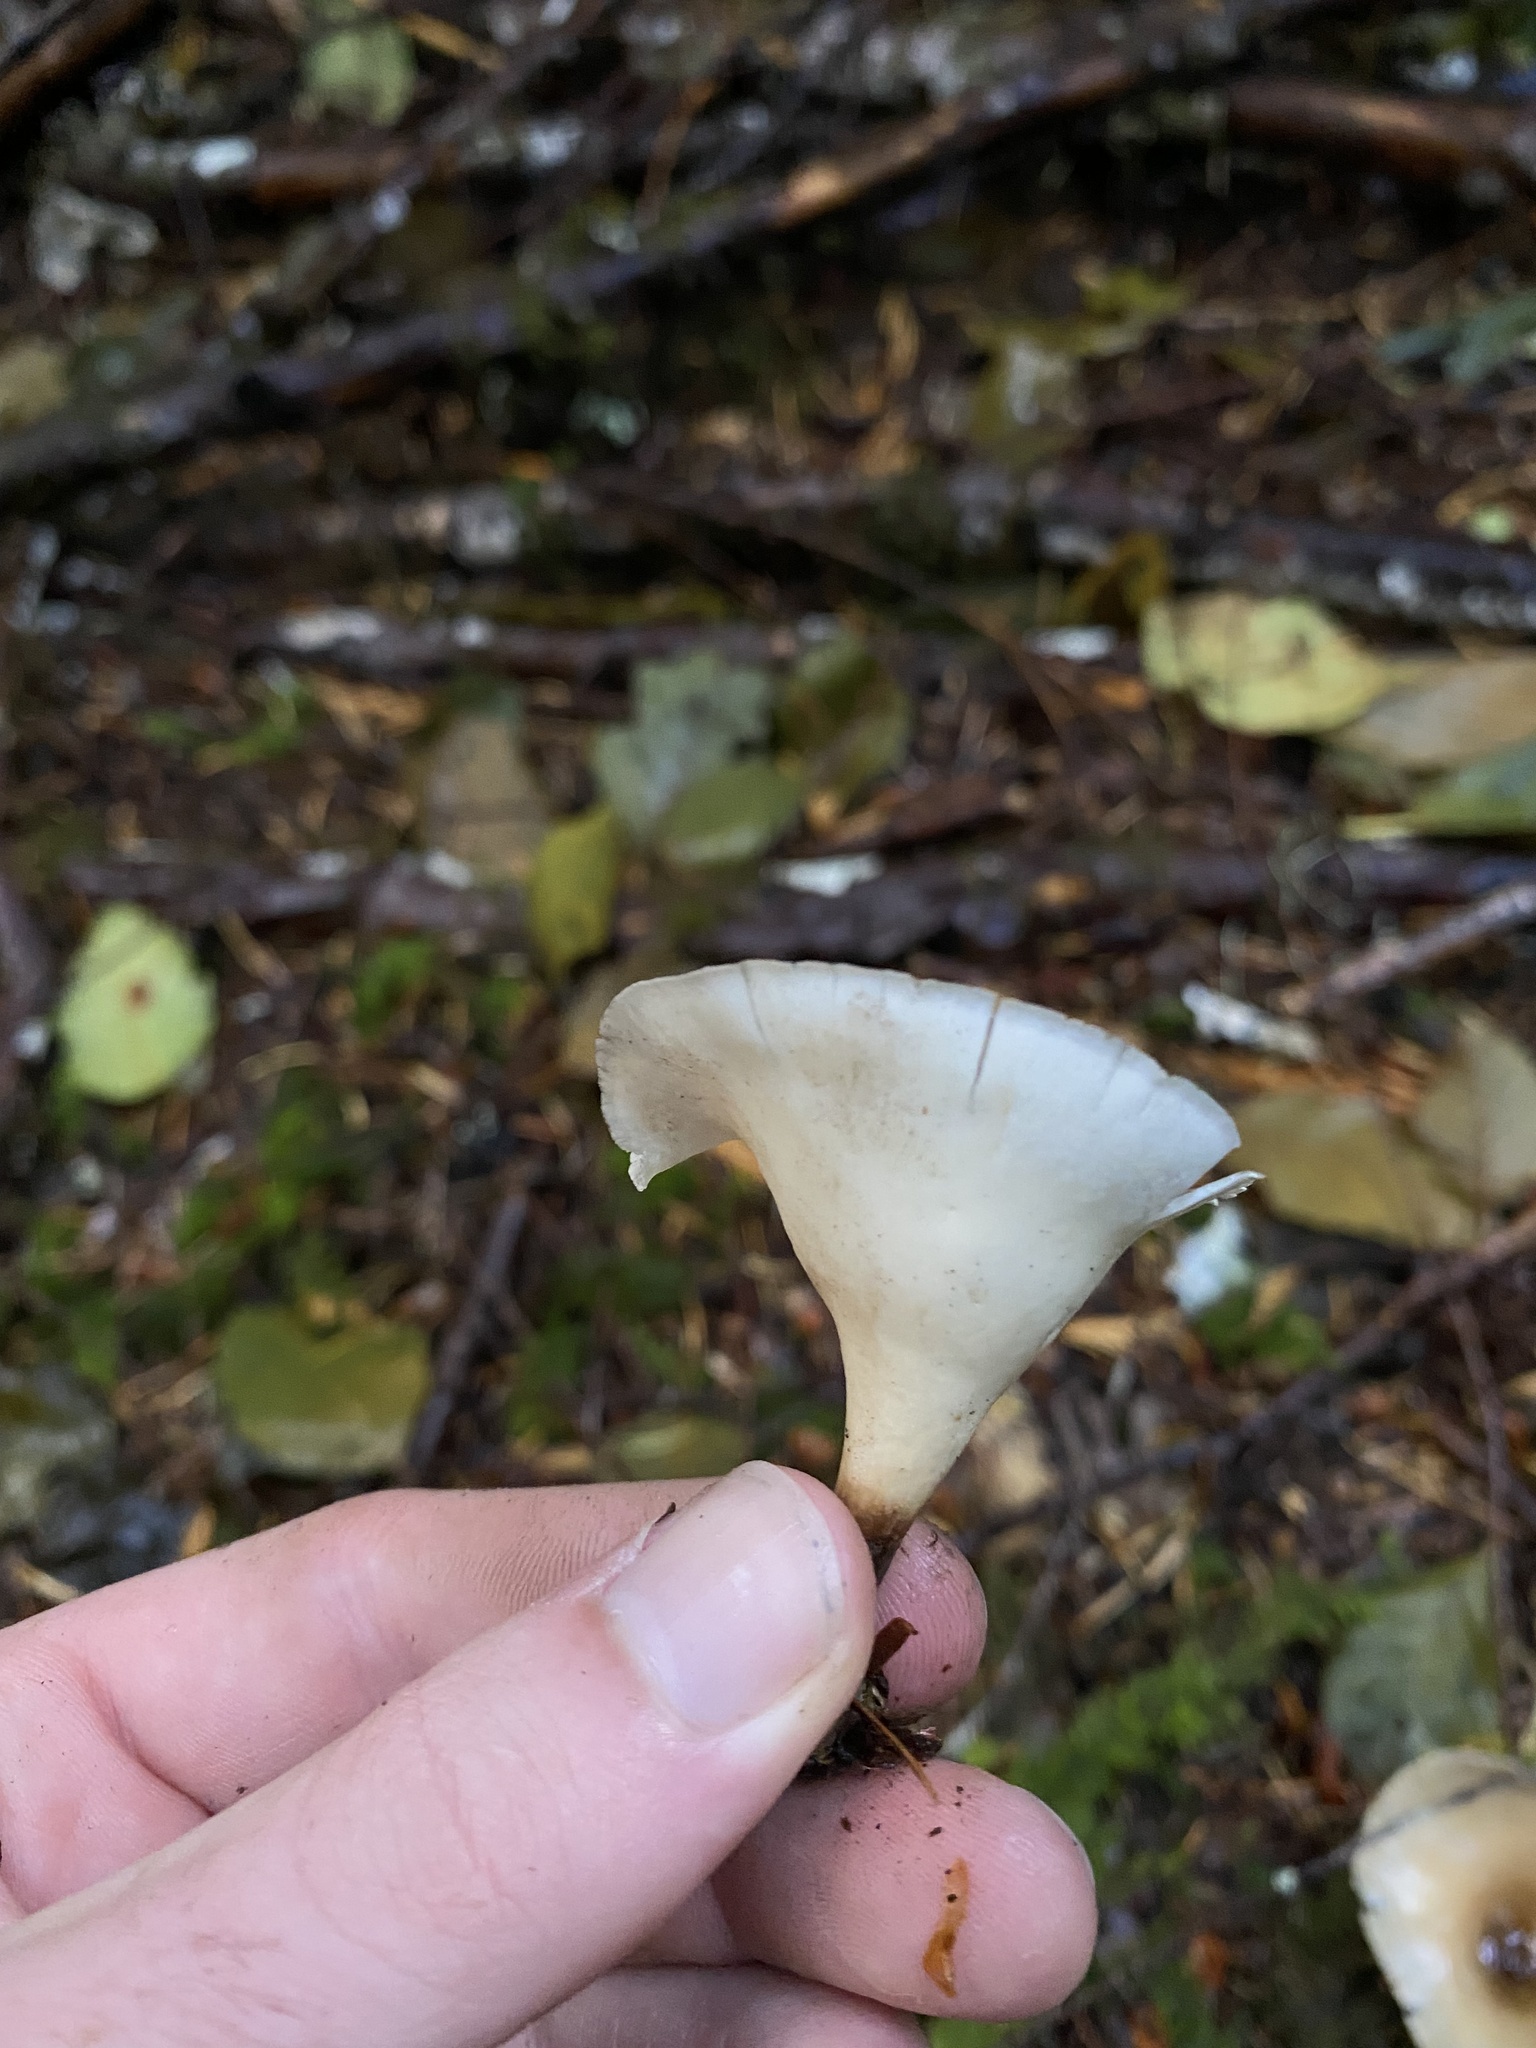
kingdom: Fungi
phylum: Basidiomycota
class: Agaricomycetes
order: Polyporales
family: Polyporaceae
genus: Cerioporus
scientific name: Cerioporus varius
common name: Elegant polypore
